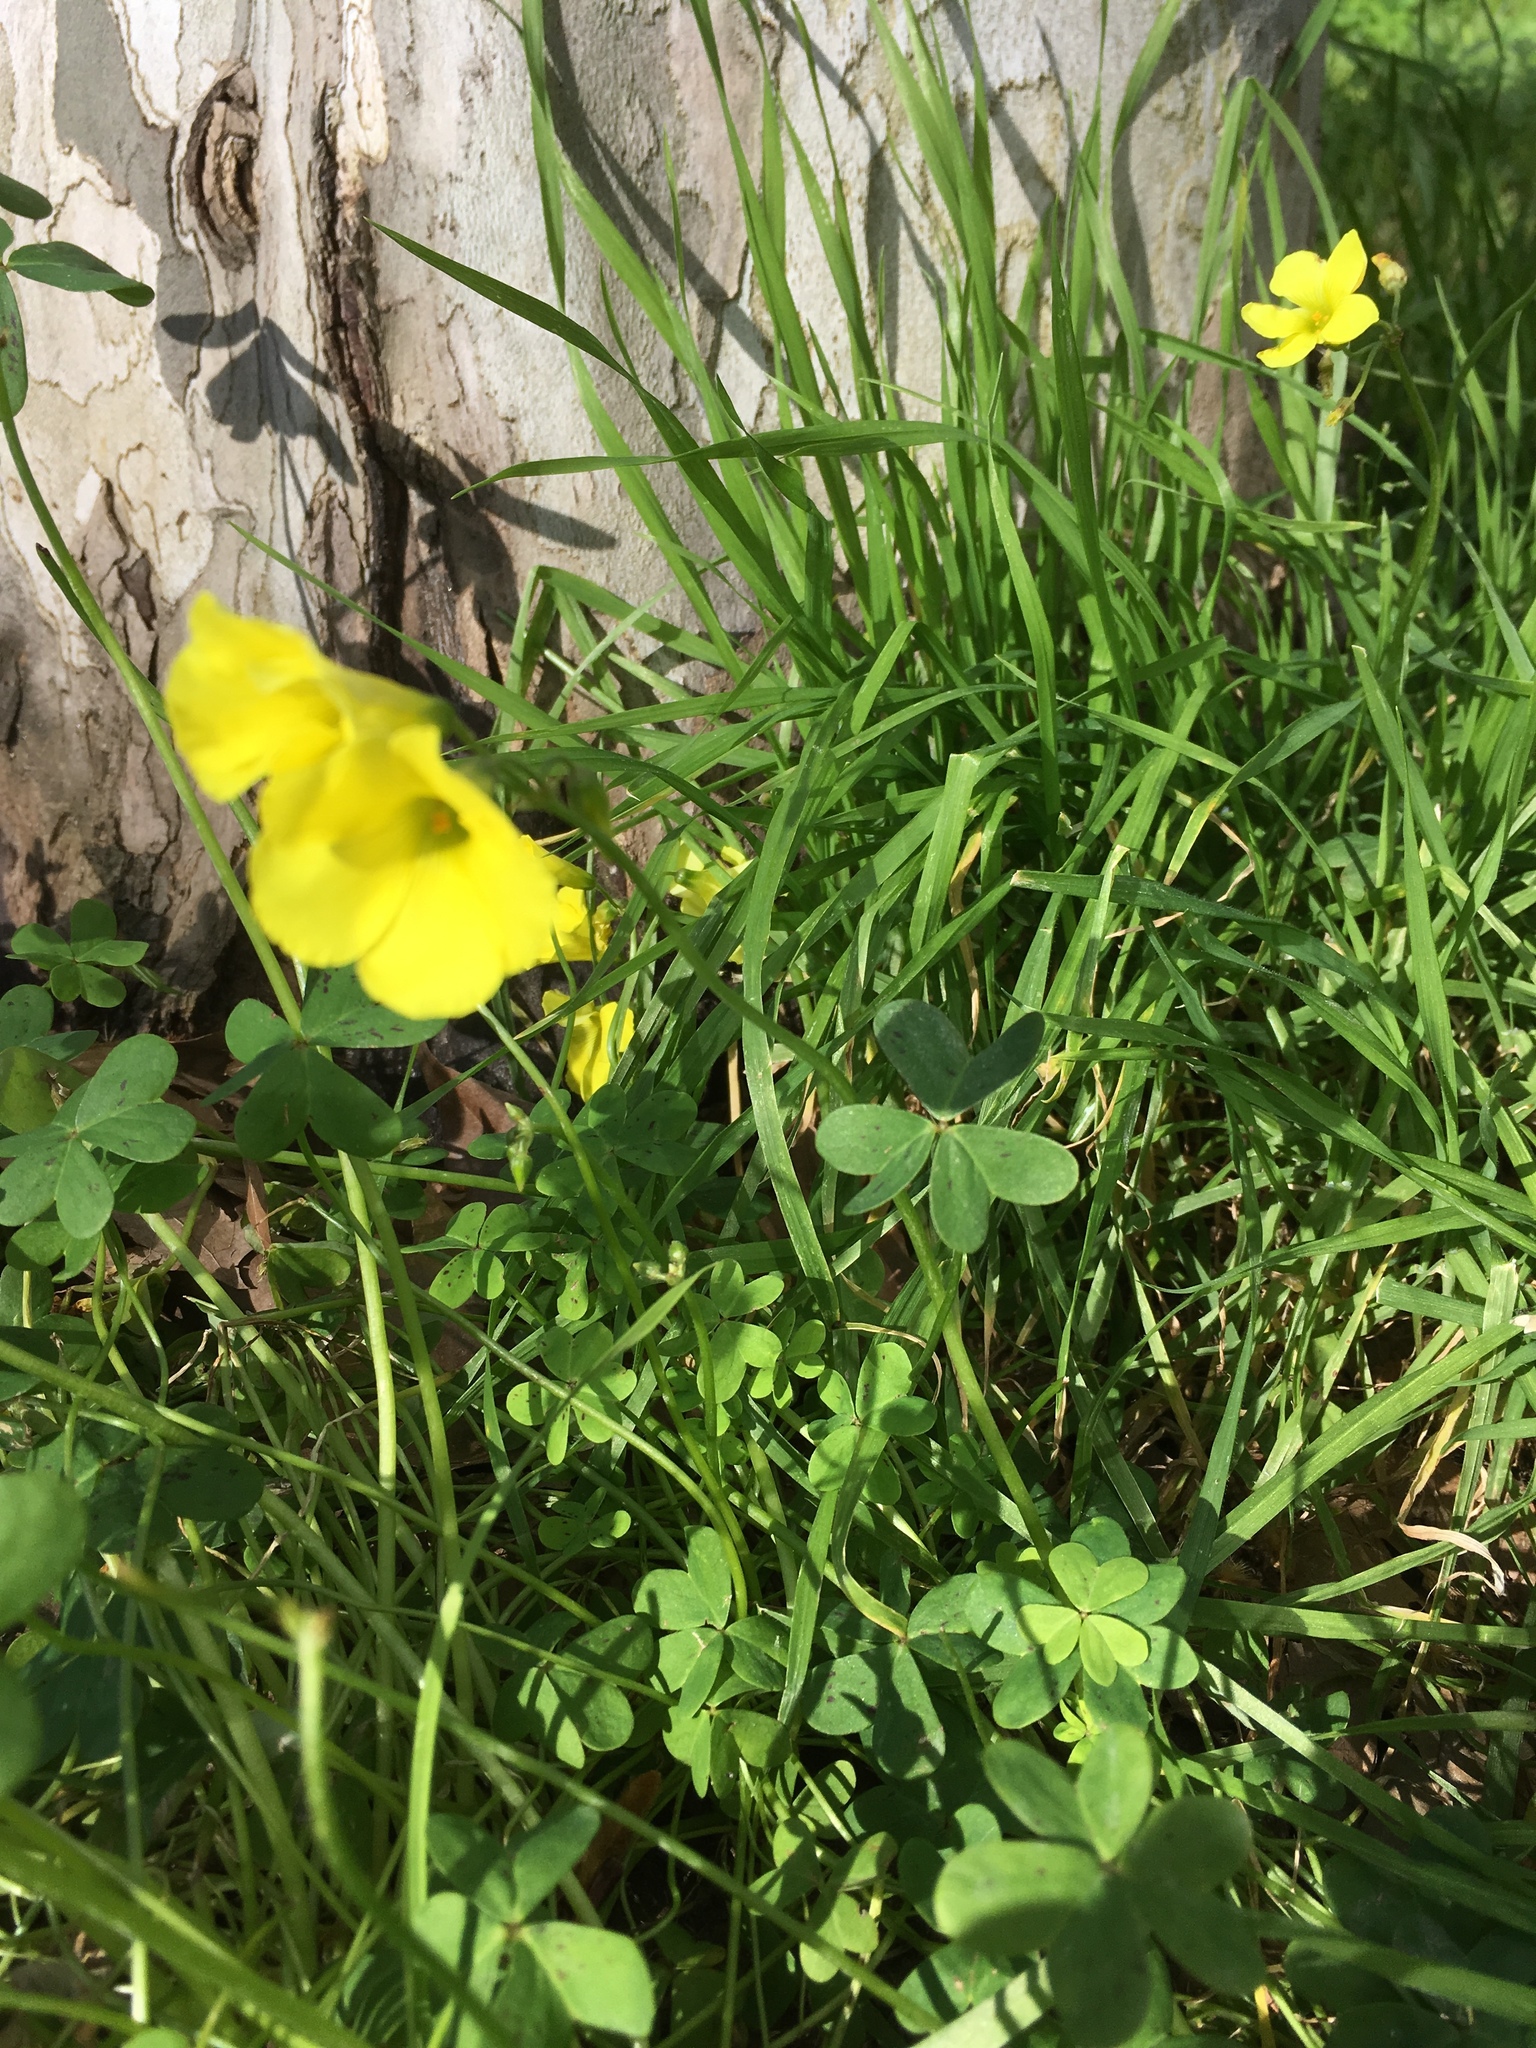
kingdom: Plantae
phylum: Tracheophyta
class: Magnoliopsida
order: Oxalidales
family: Oxalidaceae
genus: Oxalis
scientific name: Oxalis pes-caprae
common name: Bermuda-buttercup
